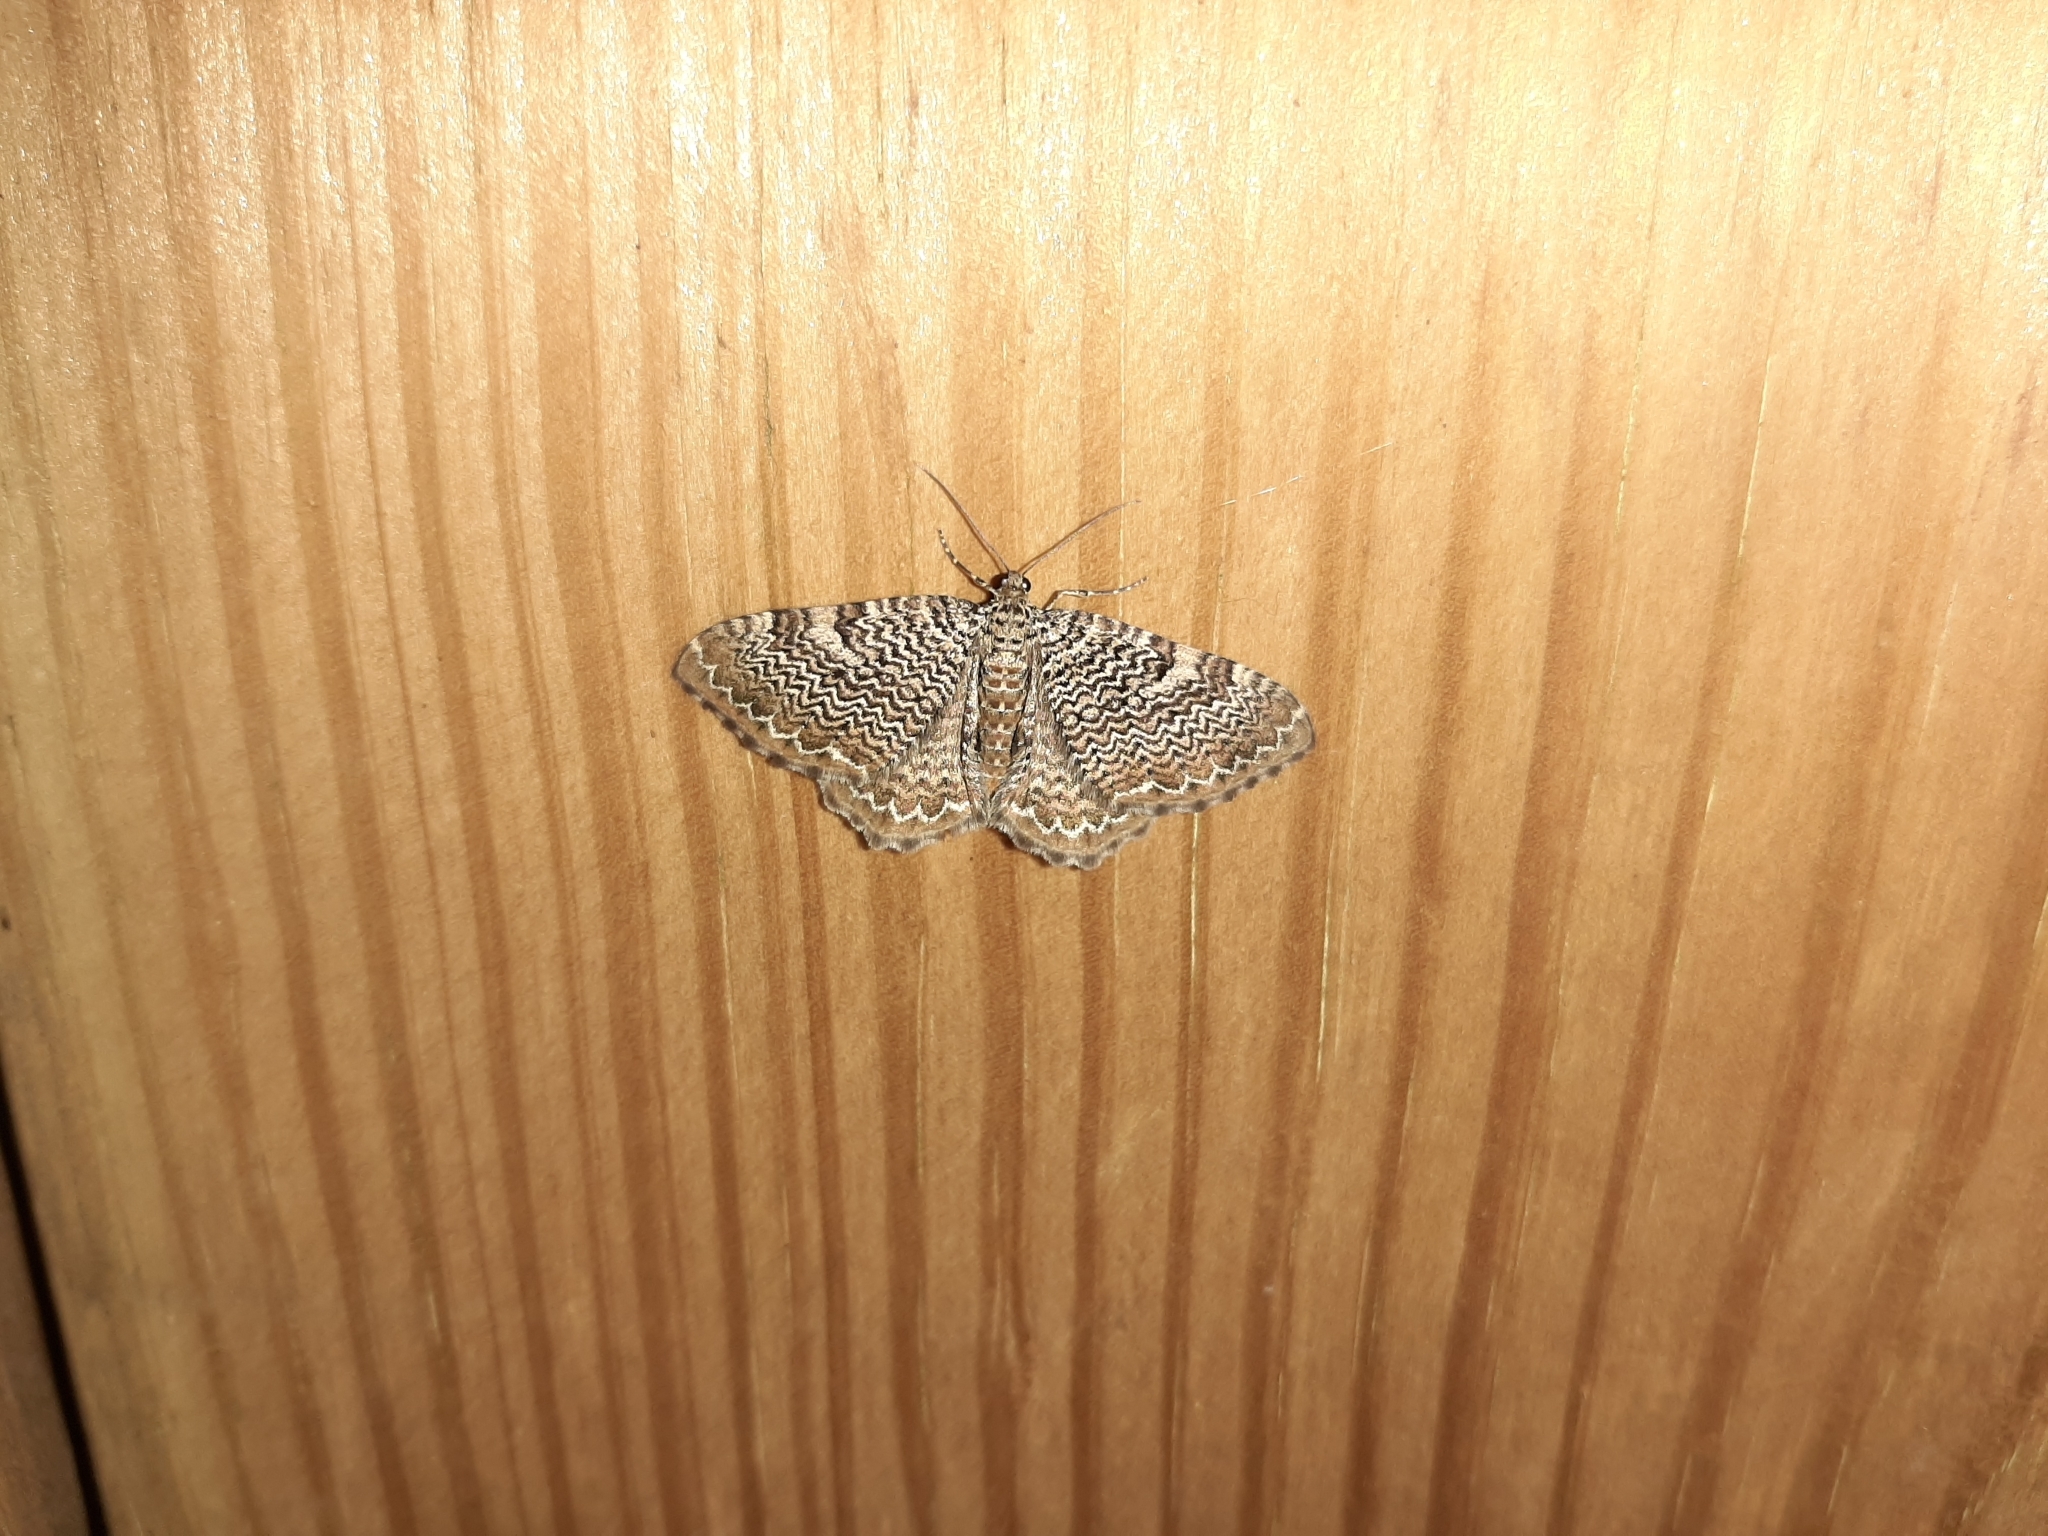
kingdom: Animalia
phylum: Arthropoda
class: Insecta
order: Lepidoptera
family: Geometridae
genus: Rheumaptera
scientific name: Rheumaptera prunivorata
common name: Cherry scallop shell moth
